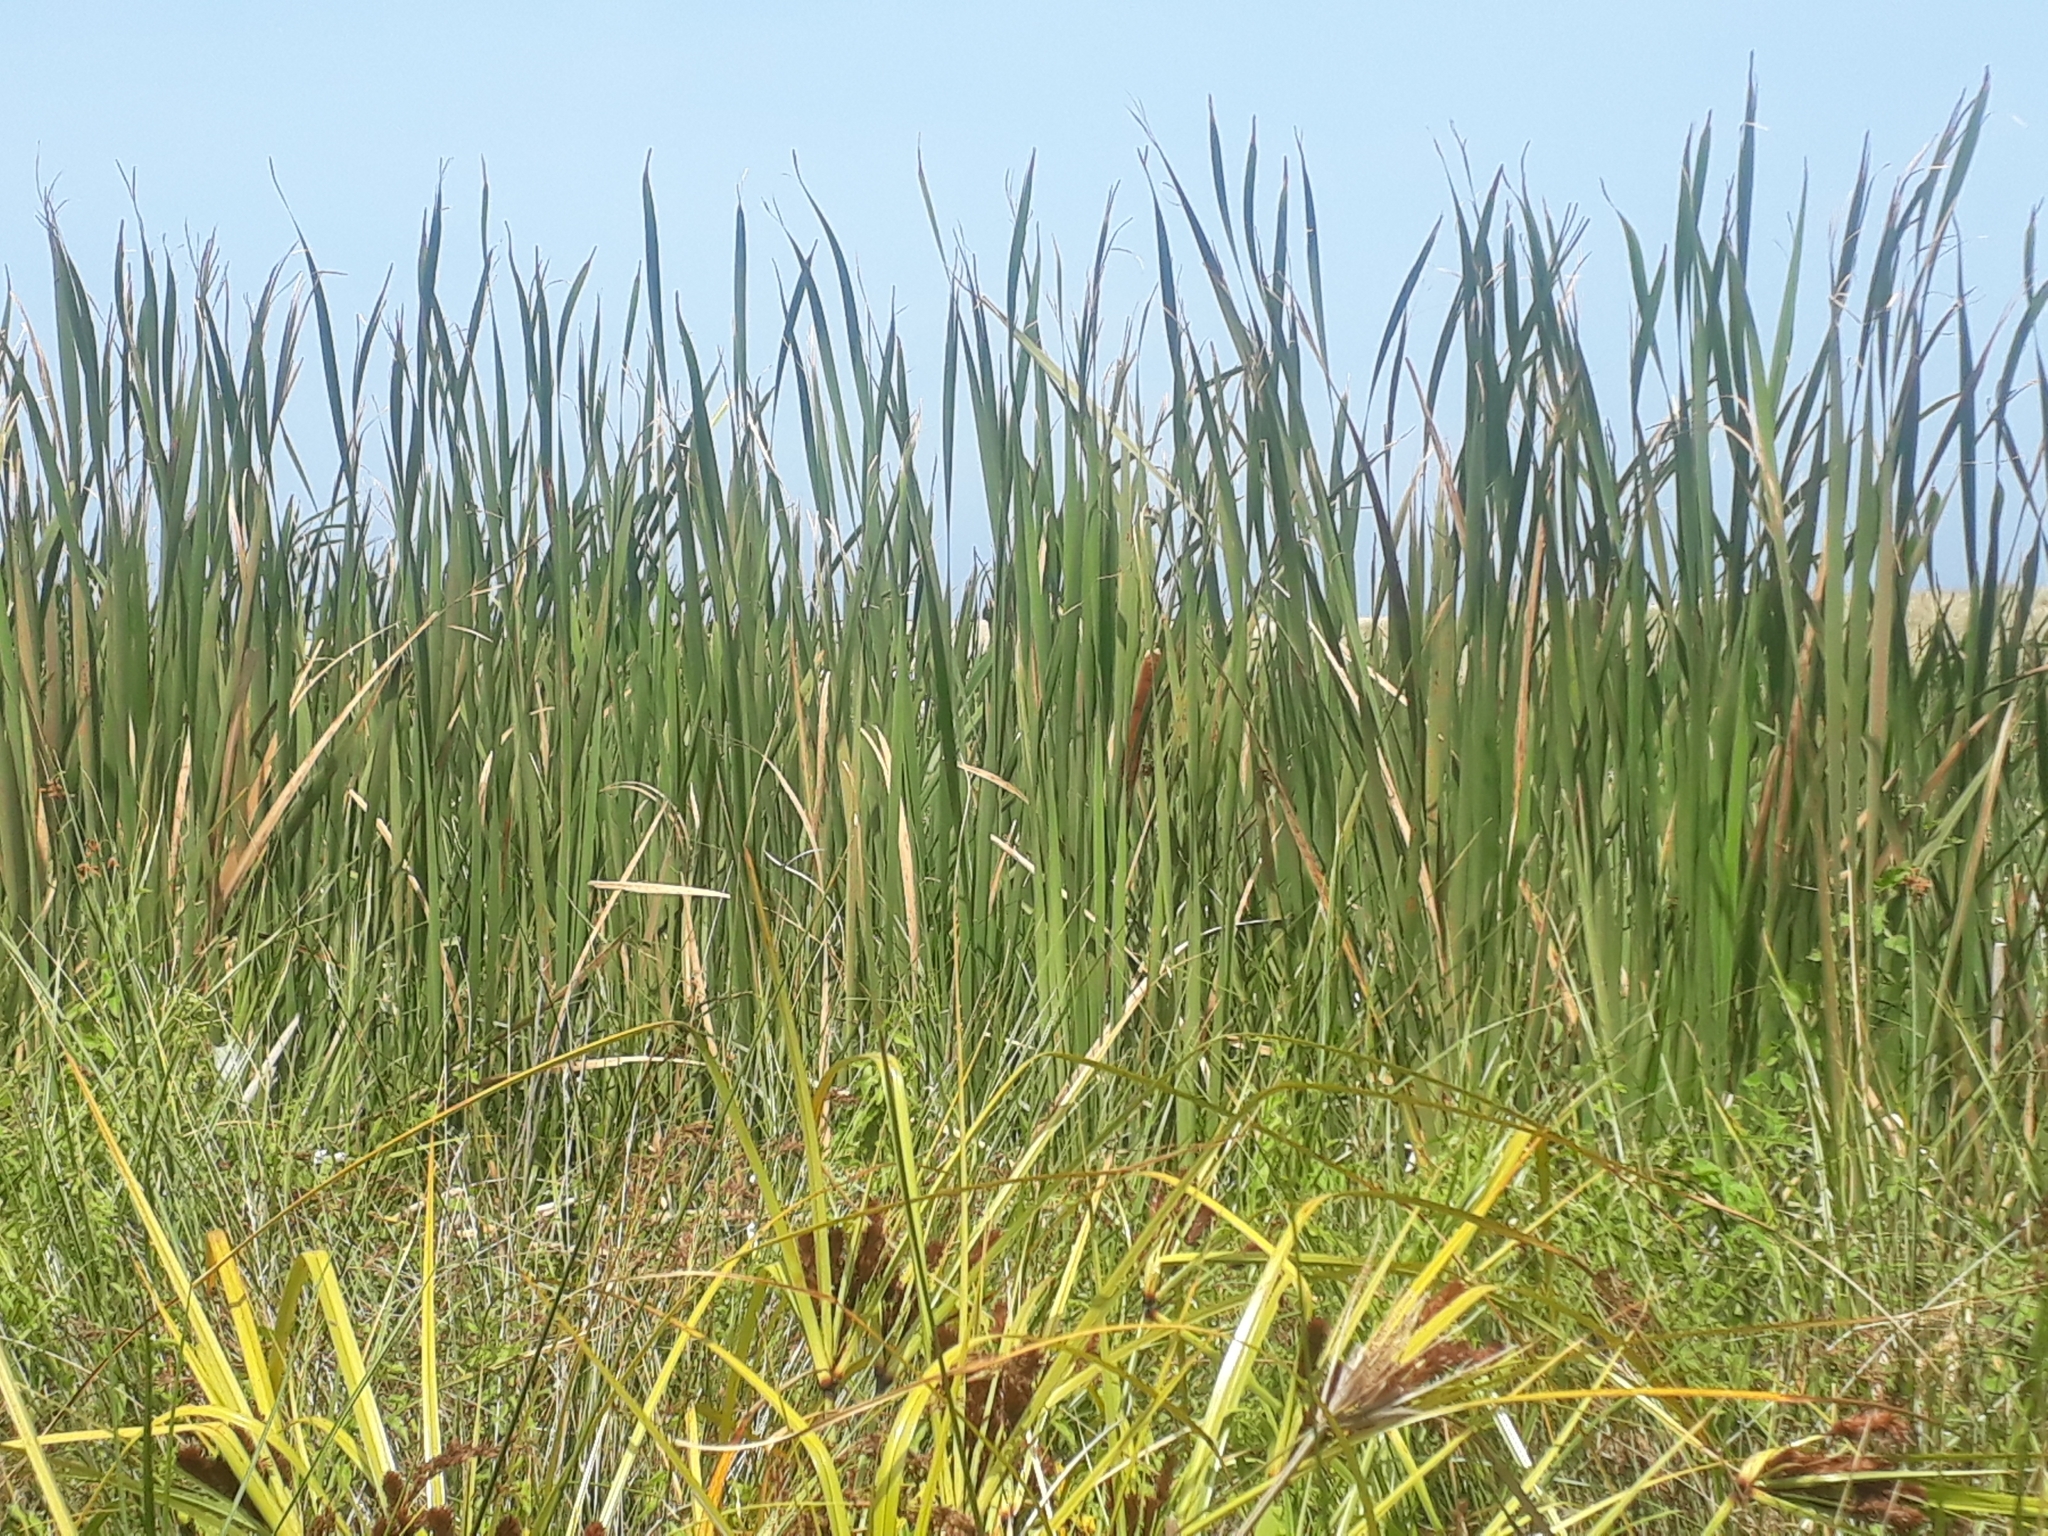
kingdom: Plantae
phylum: Tracheophyta
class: Liliopsida
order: Poales
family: Typhaceae
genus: Typha
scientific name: Typha orientalis
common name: Bullrush
